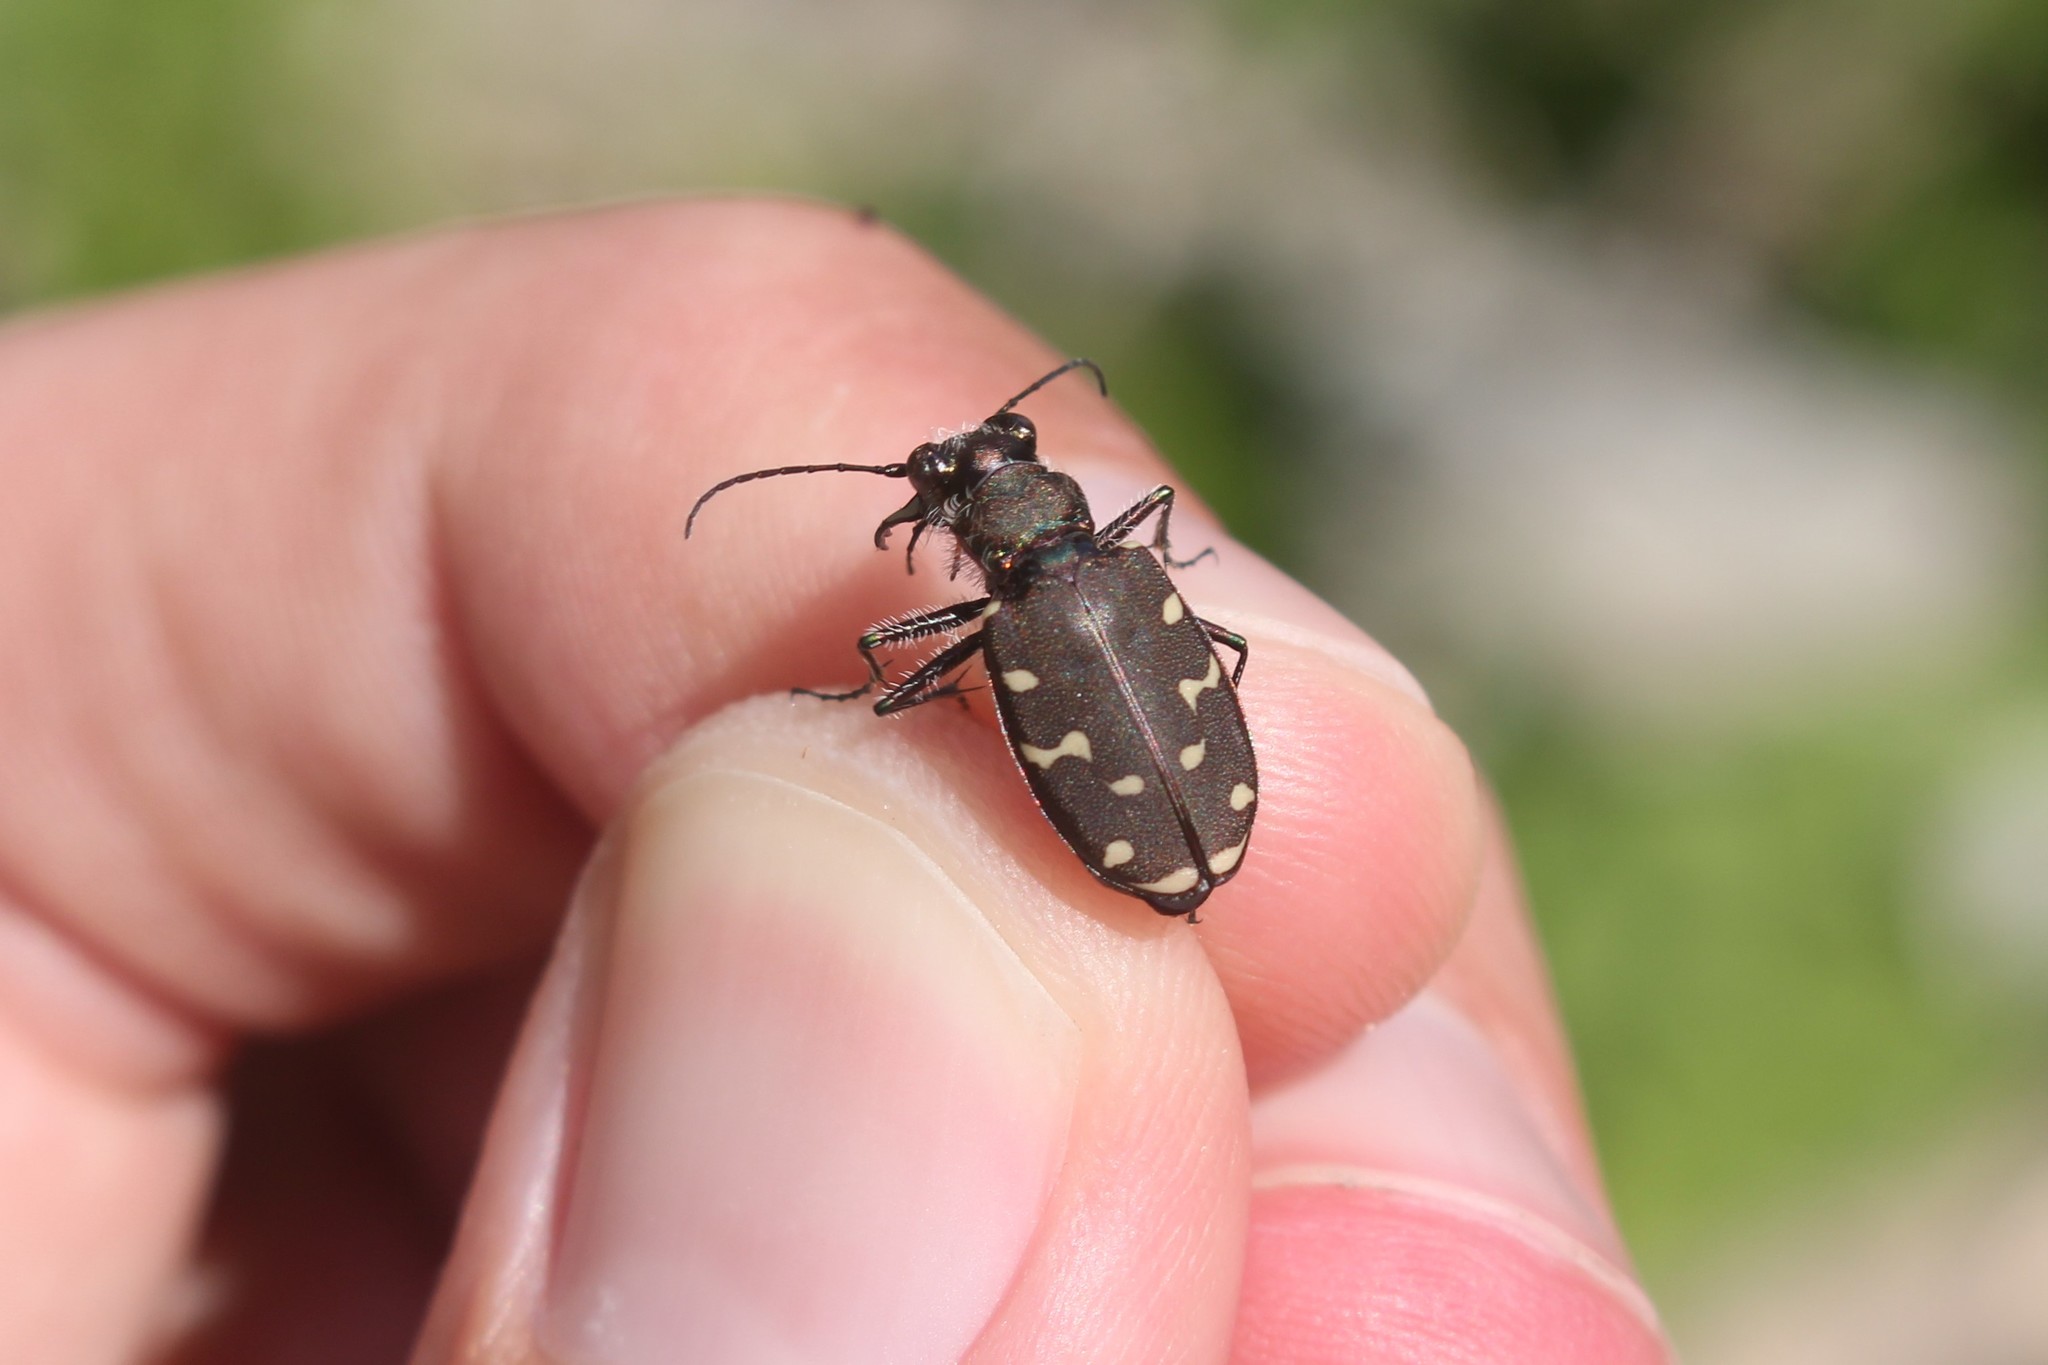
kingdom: Animalia
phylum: Arthropoda
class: Insecta
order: Coleoptera
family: Carabidae
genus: Cicindela
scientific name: Cicindela duodecimguttata
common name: Twelve-spotted tiger beetle
